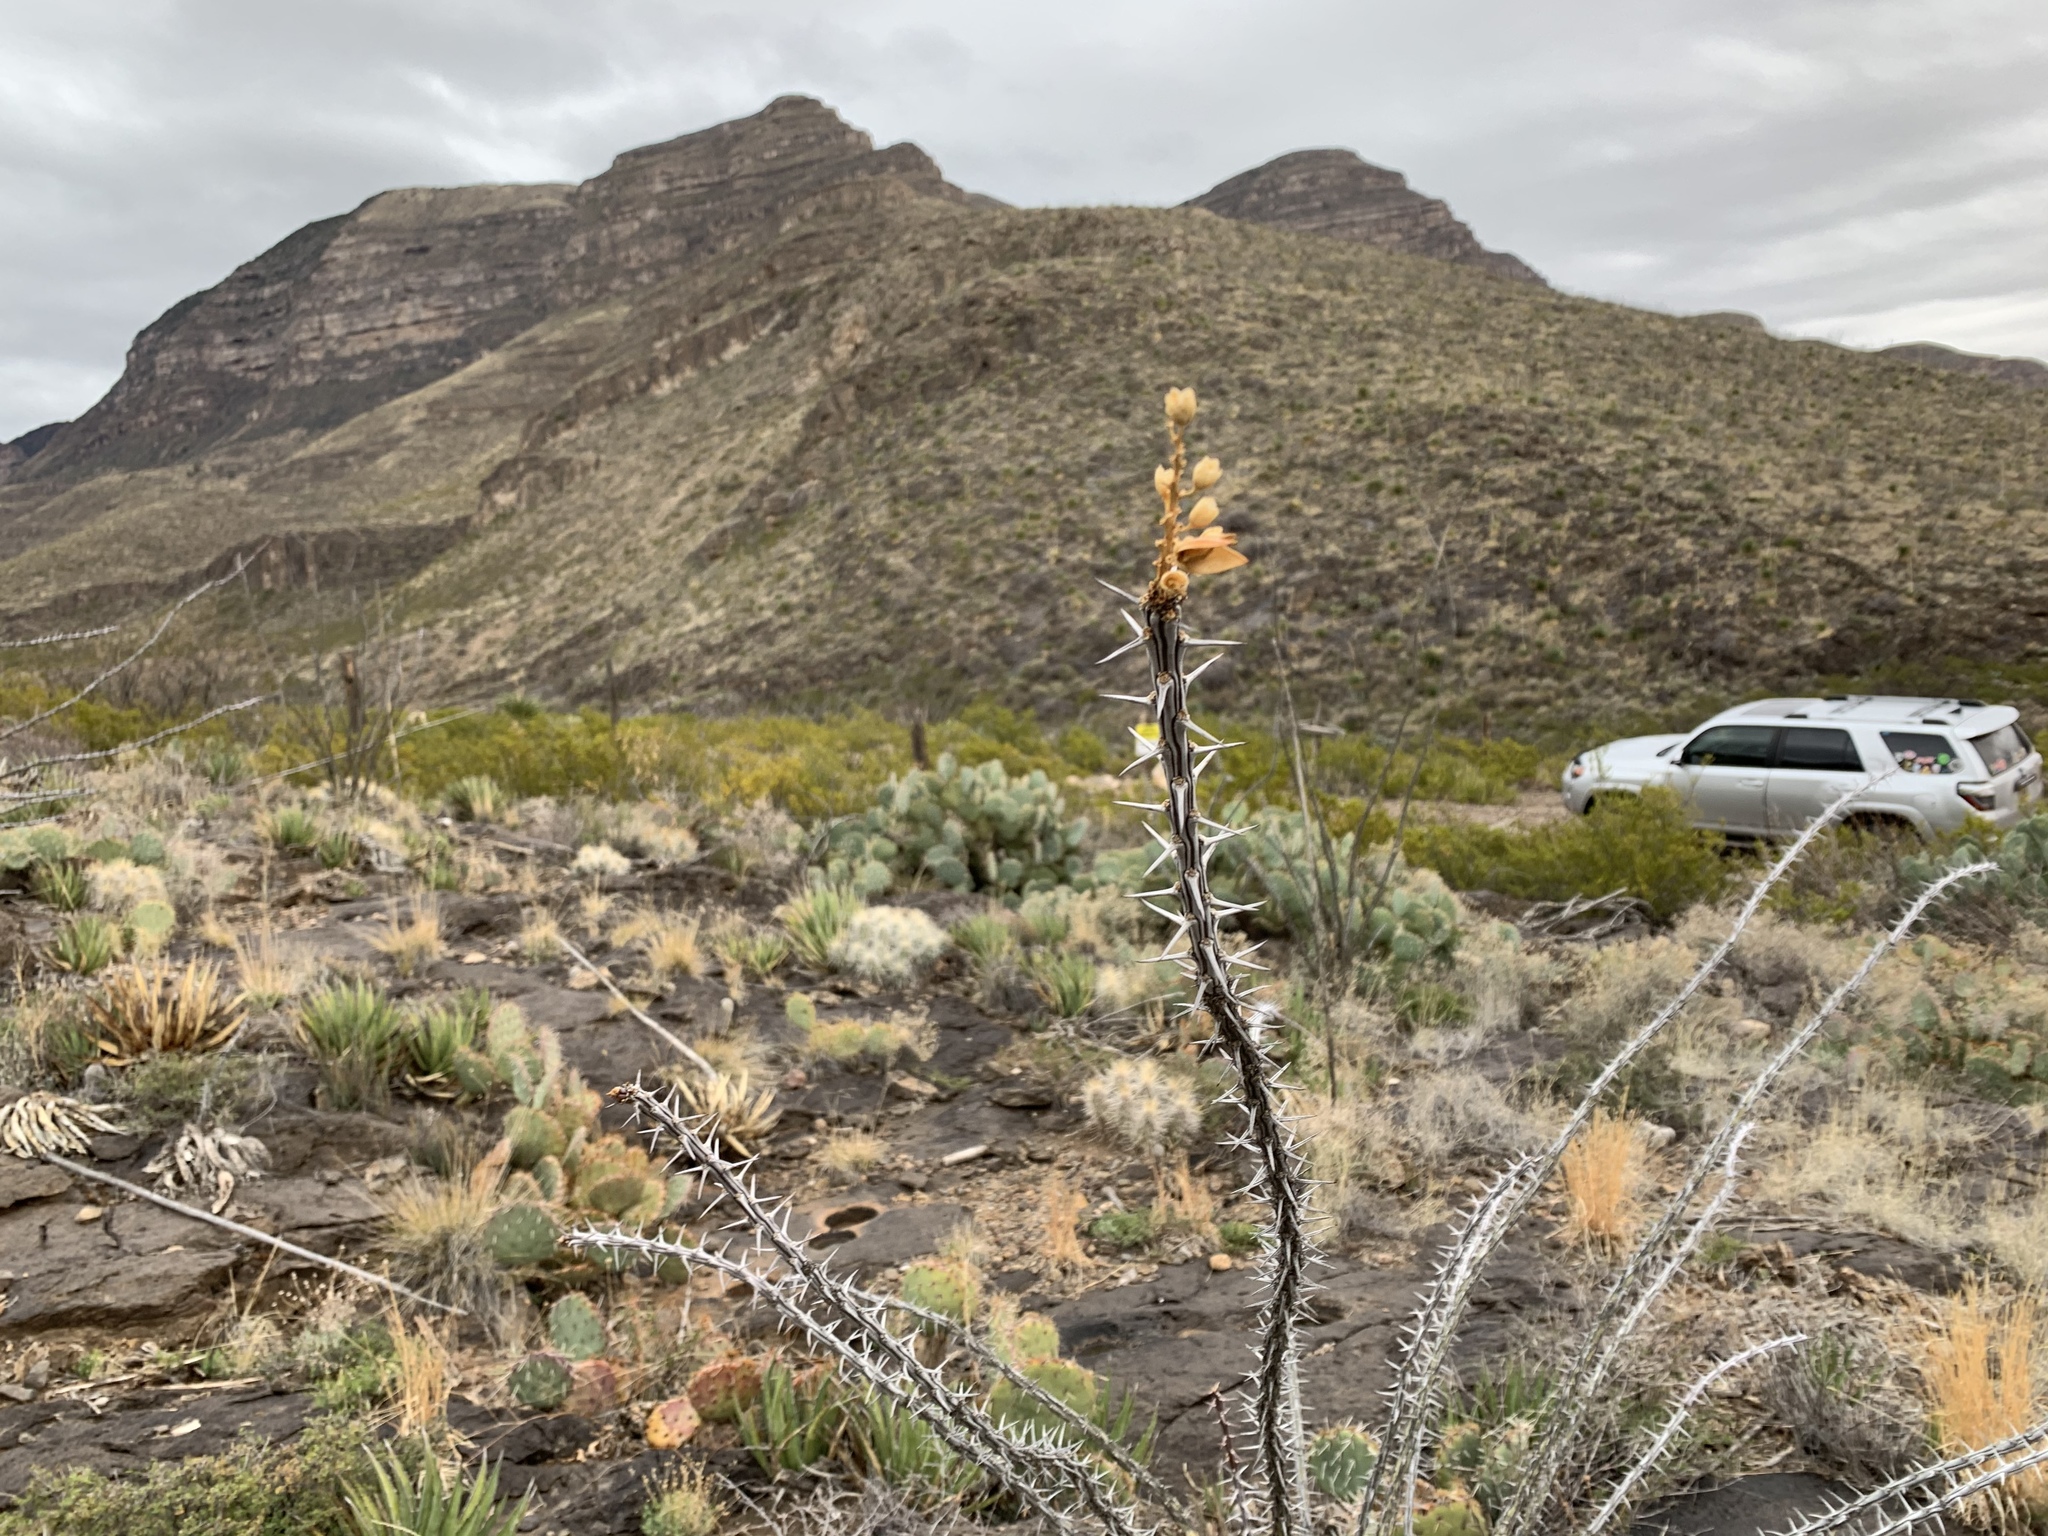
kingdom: Plantae
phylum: Tracheophyta
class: Magnoliopsida
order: Ericales
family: Fouquieriaceae
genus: Fouquieria
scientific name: Fouquieria splendens
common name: Vine-cactus
